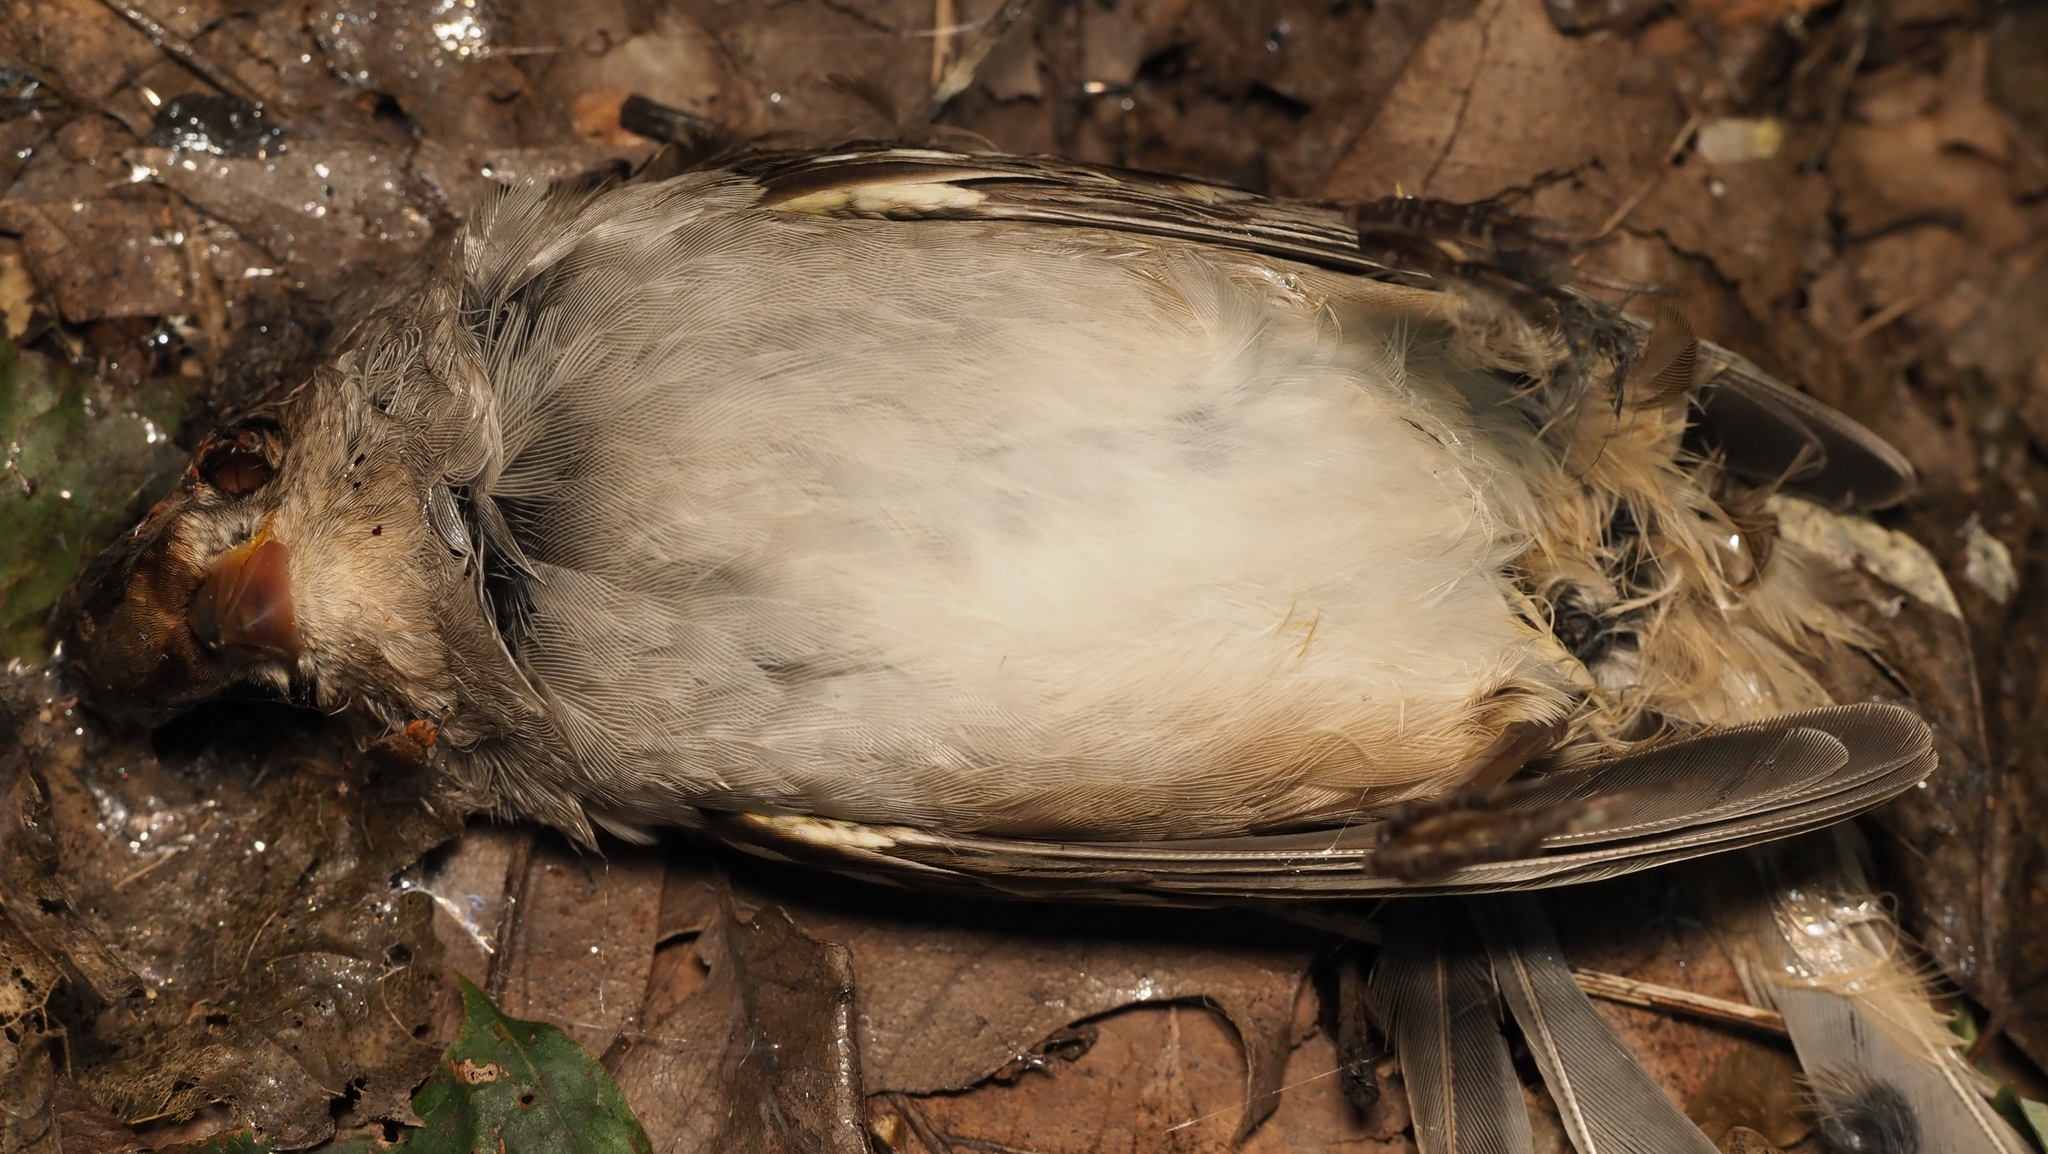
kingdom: Animalia
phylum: Chordata
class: Aves
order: Passeriformes
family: Passeridae
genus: Passer
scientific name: Passer domesticus
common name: House sparrow
